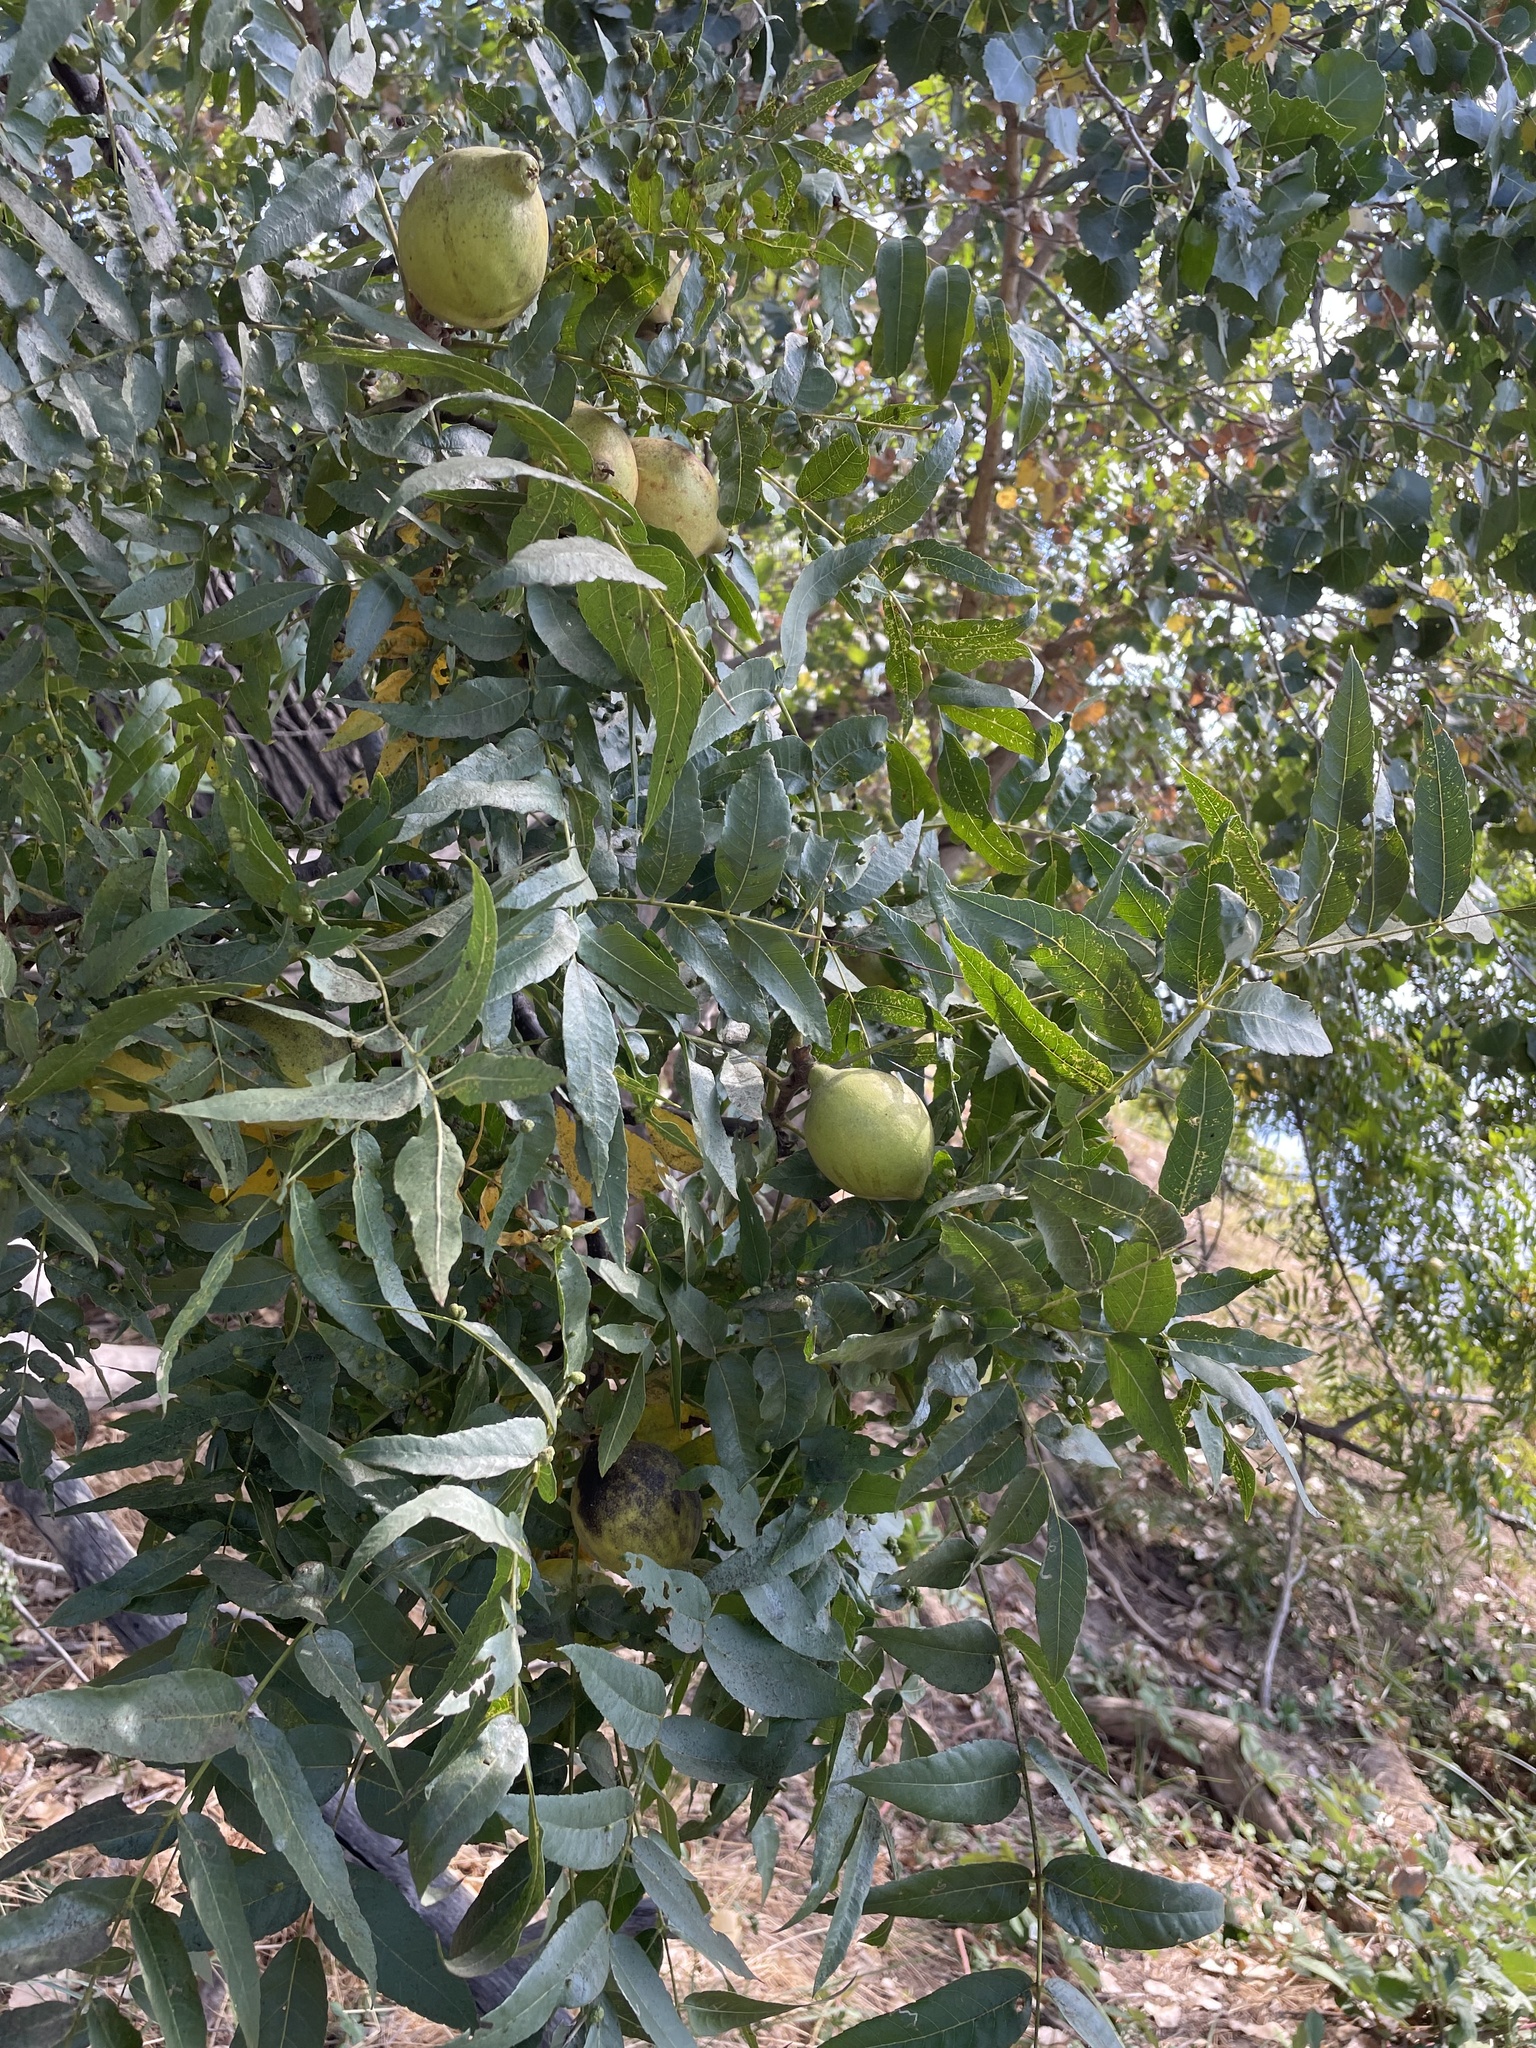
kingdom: Plantae
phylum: Tracheophyta
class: Magnoliopsida
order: Fagales
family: Juglandaceae
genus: Juglans
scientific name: Juglans hindsii
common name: Northern california black walnut
